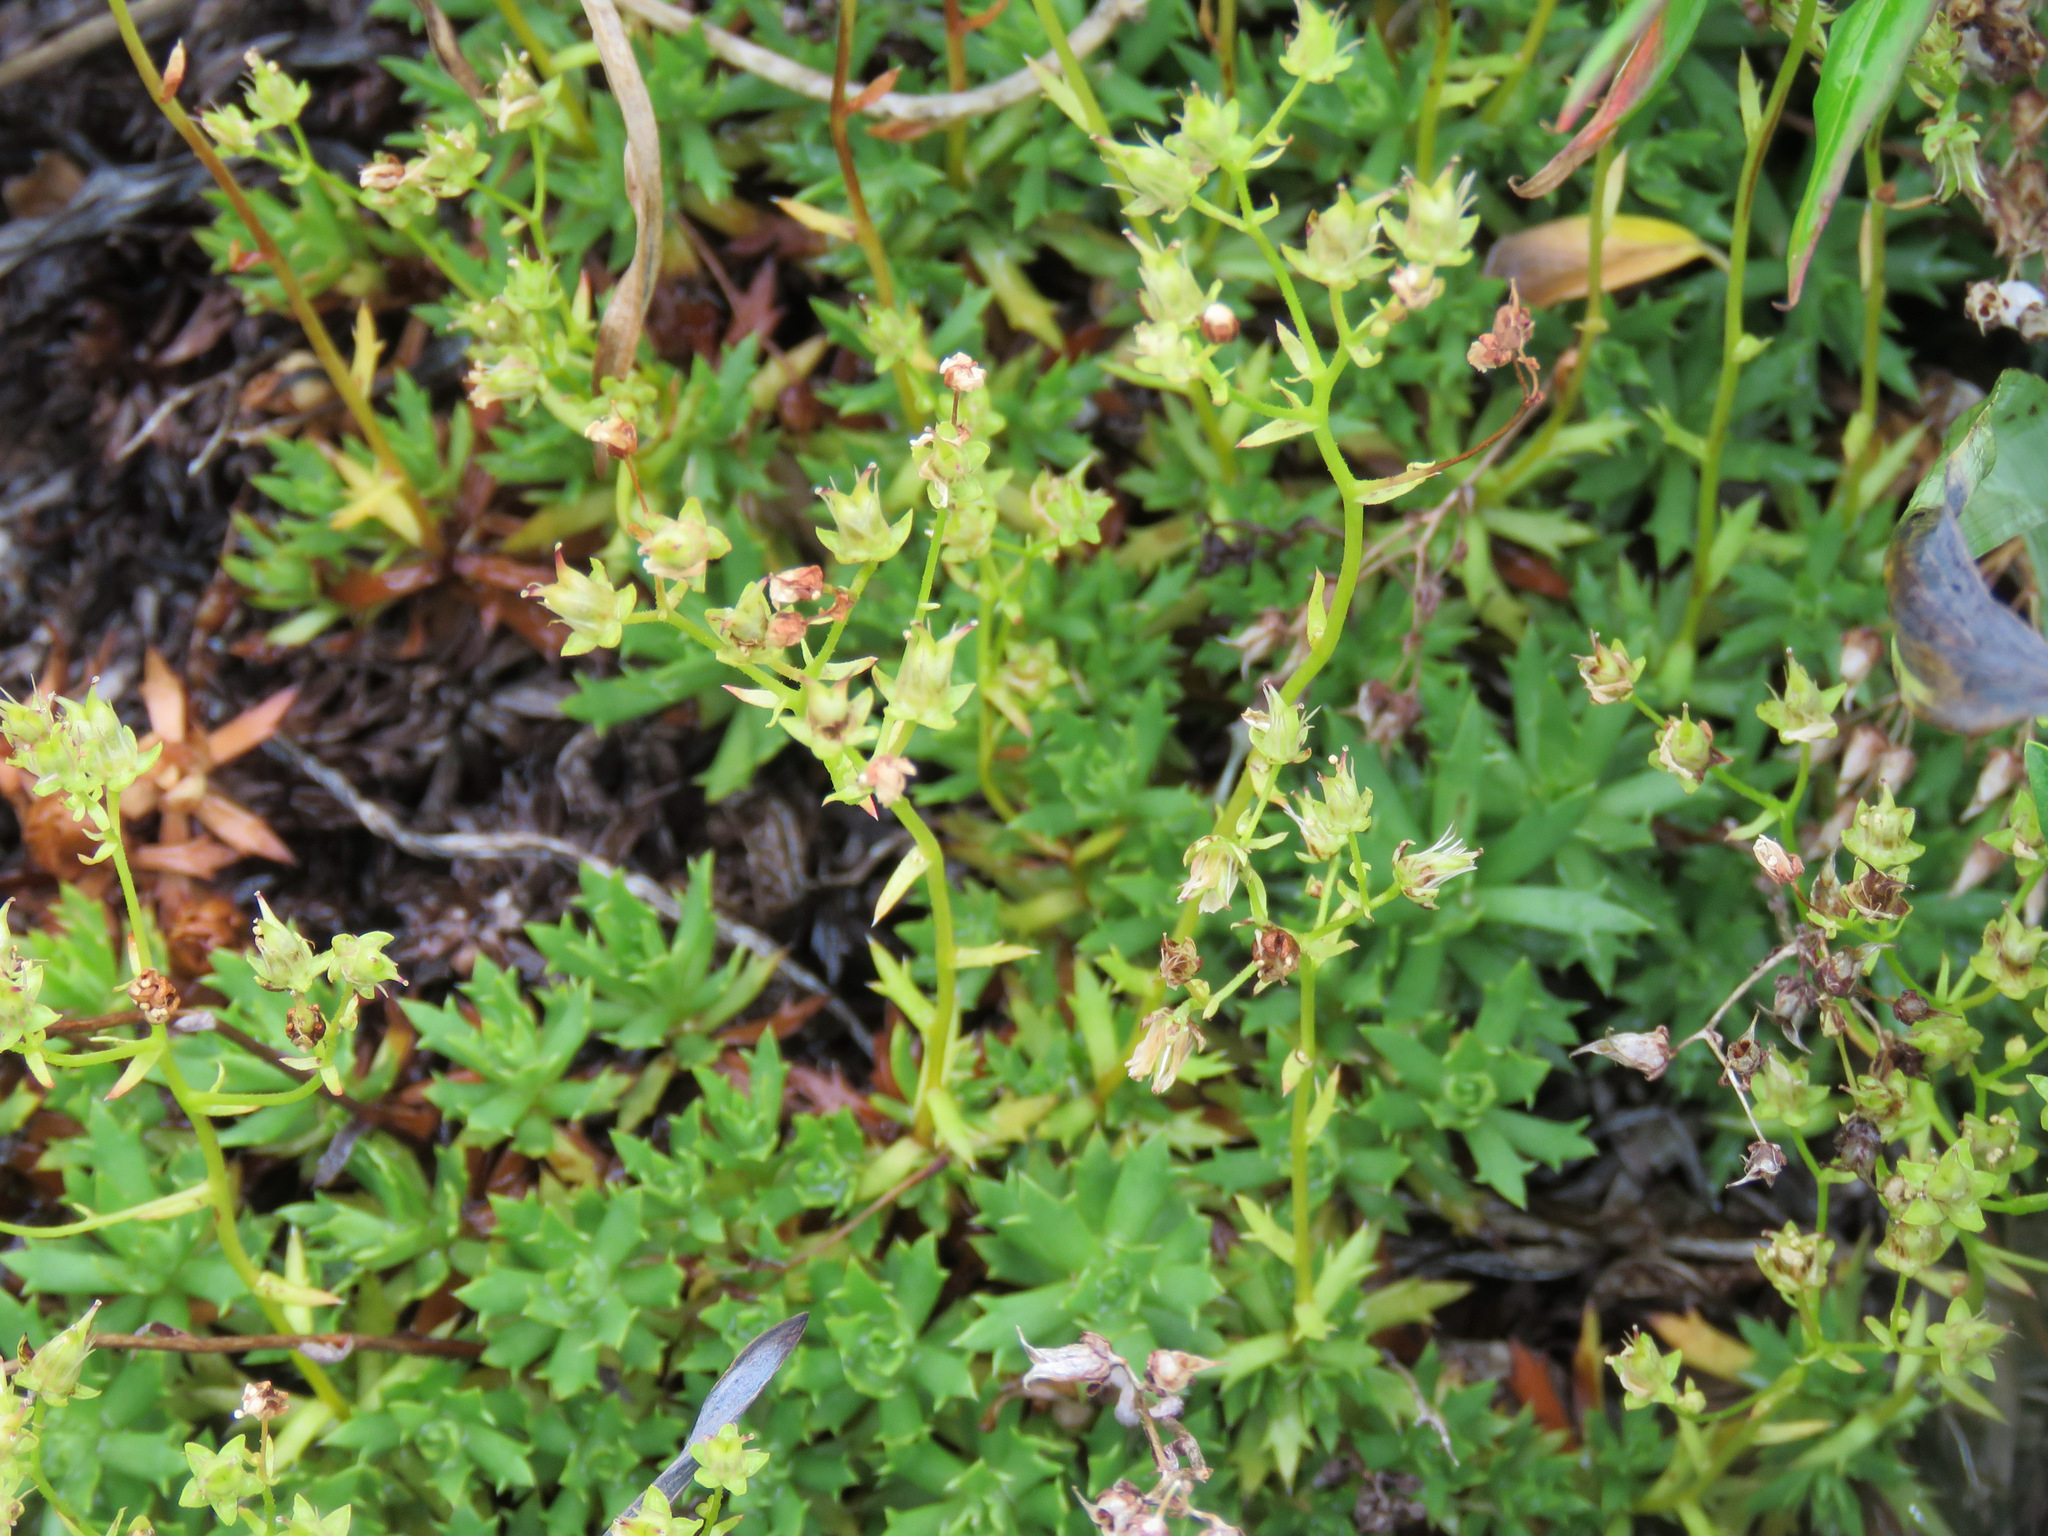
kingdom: Plantae
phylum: Tracheophyta
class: Magnoliopsida
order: Saxifragales
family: Saxifragaceae
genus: Saxifraga
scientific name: Saxifraga tricuspidata
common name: Prickly saxifrage
